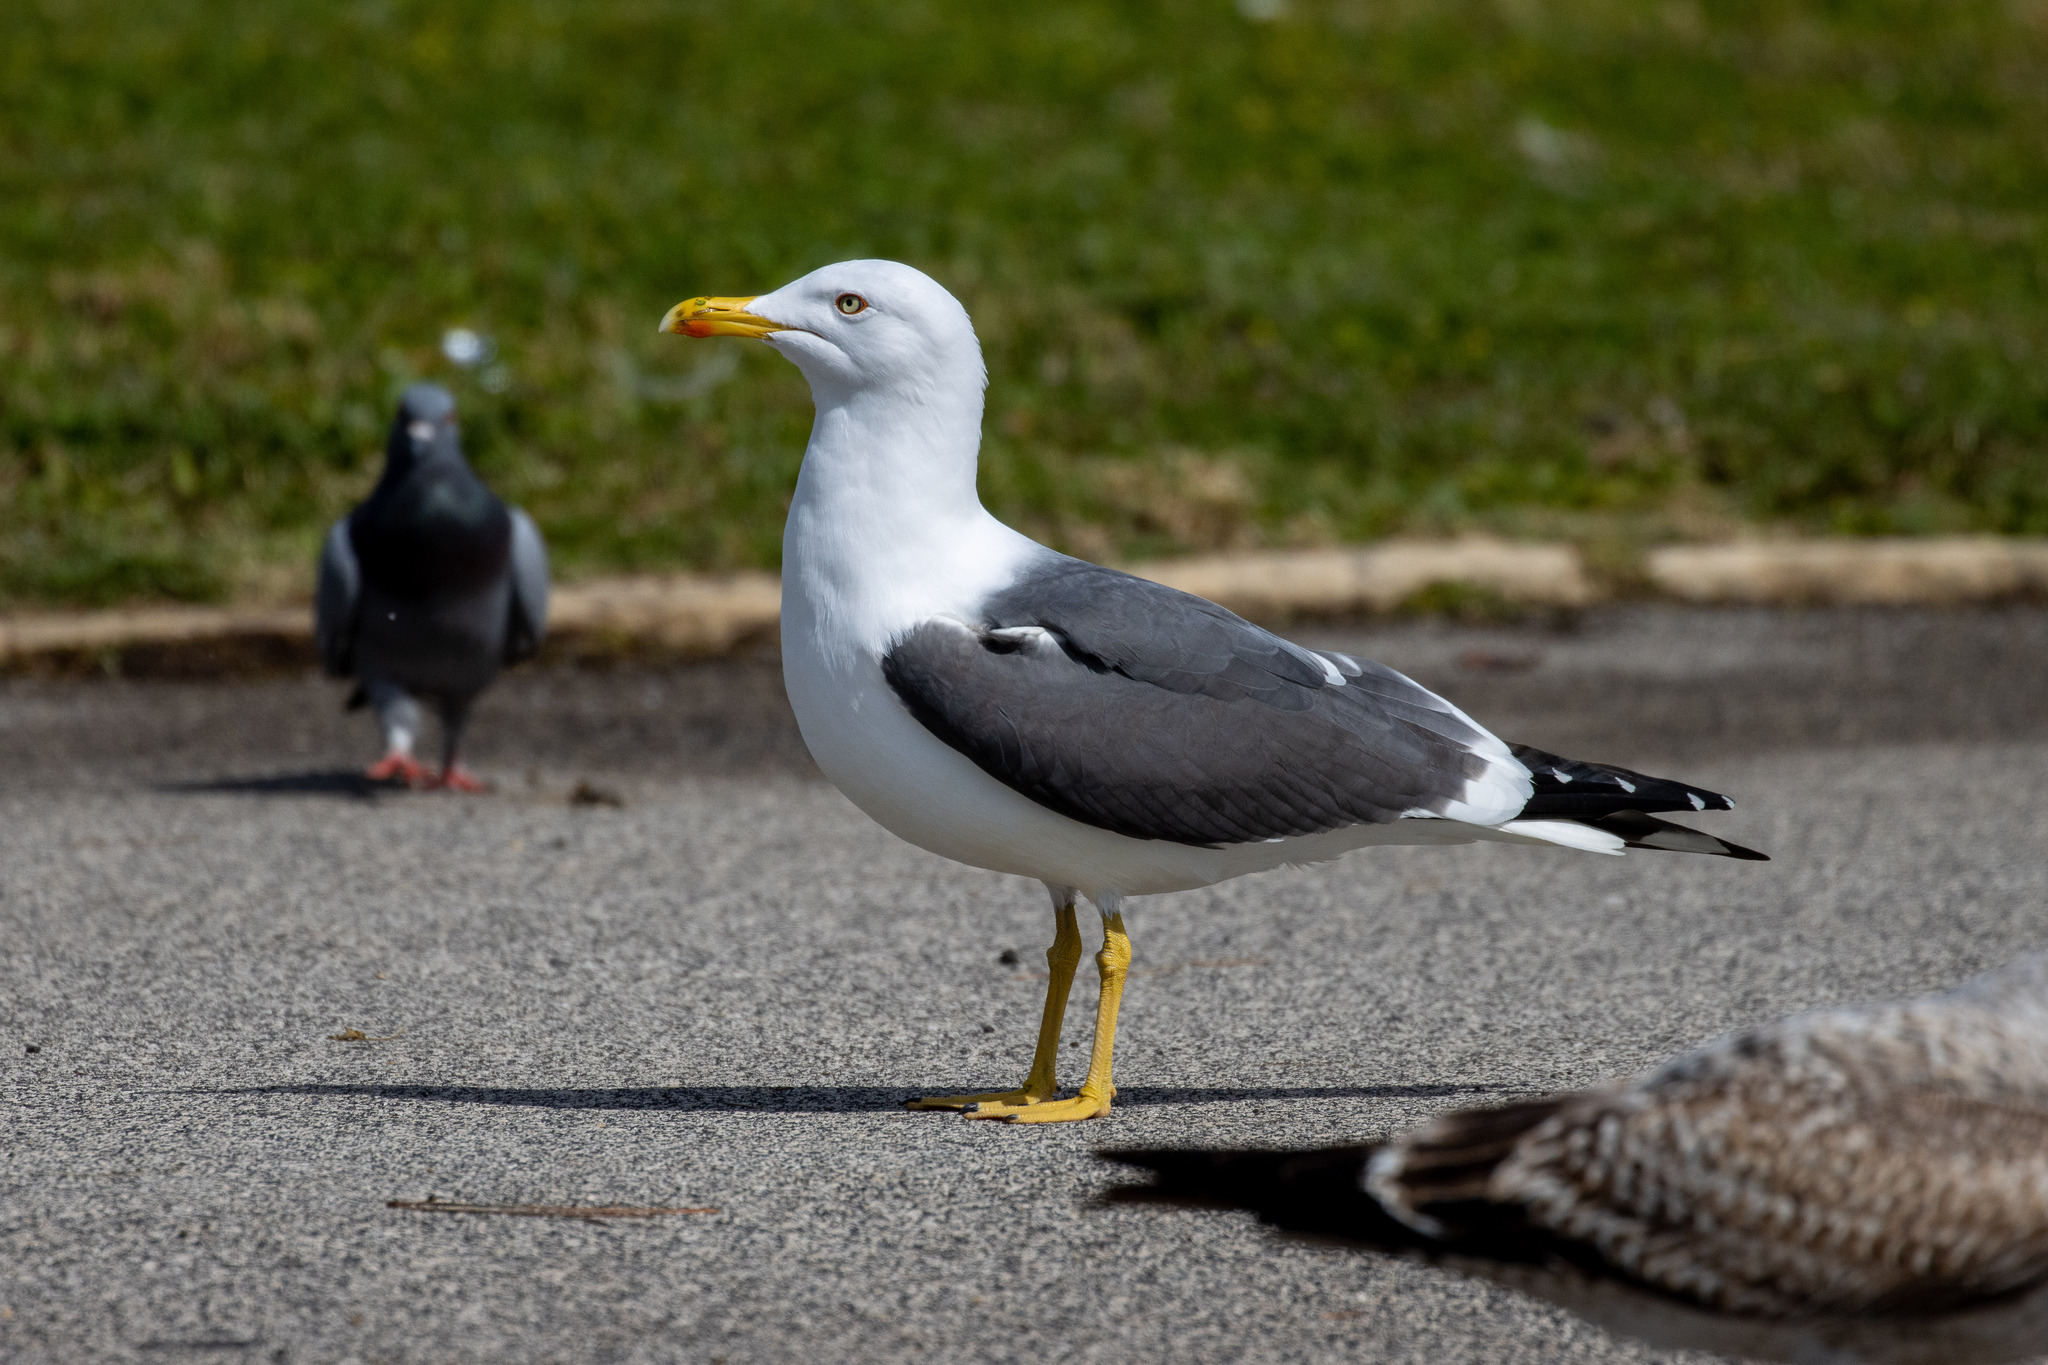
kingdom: Animalia
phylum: Chordata
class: Aves
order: Charadriiformes
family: Laridae
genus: Larus
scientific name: Larus fuscus
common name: Lesser black-backed gull
